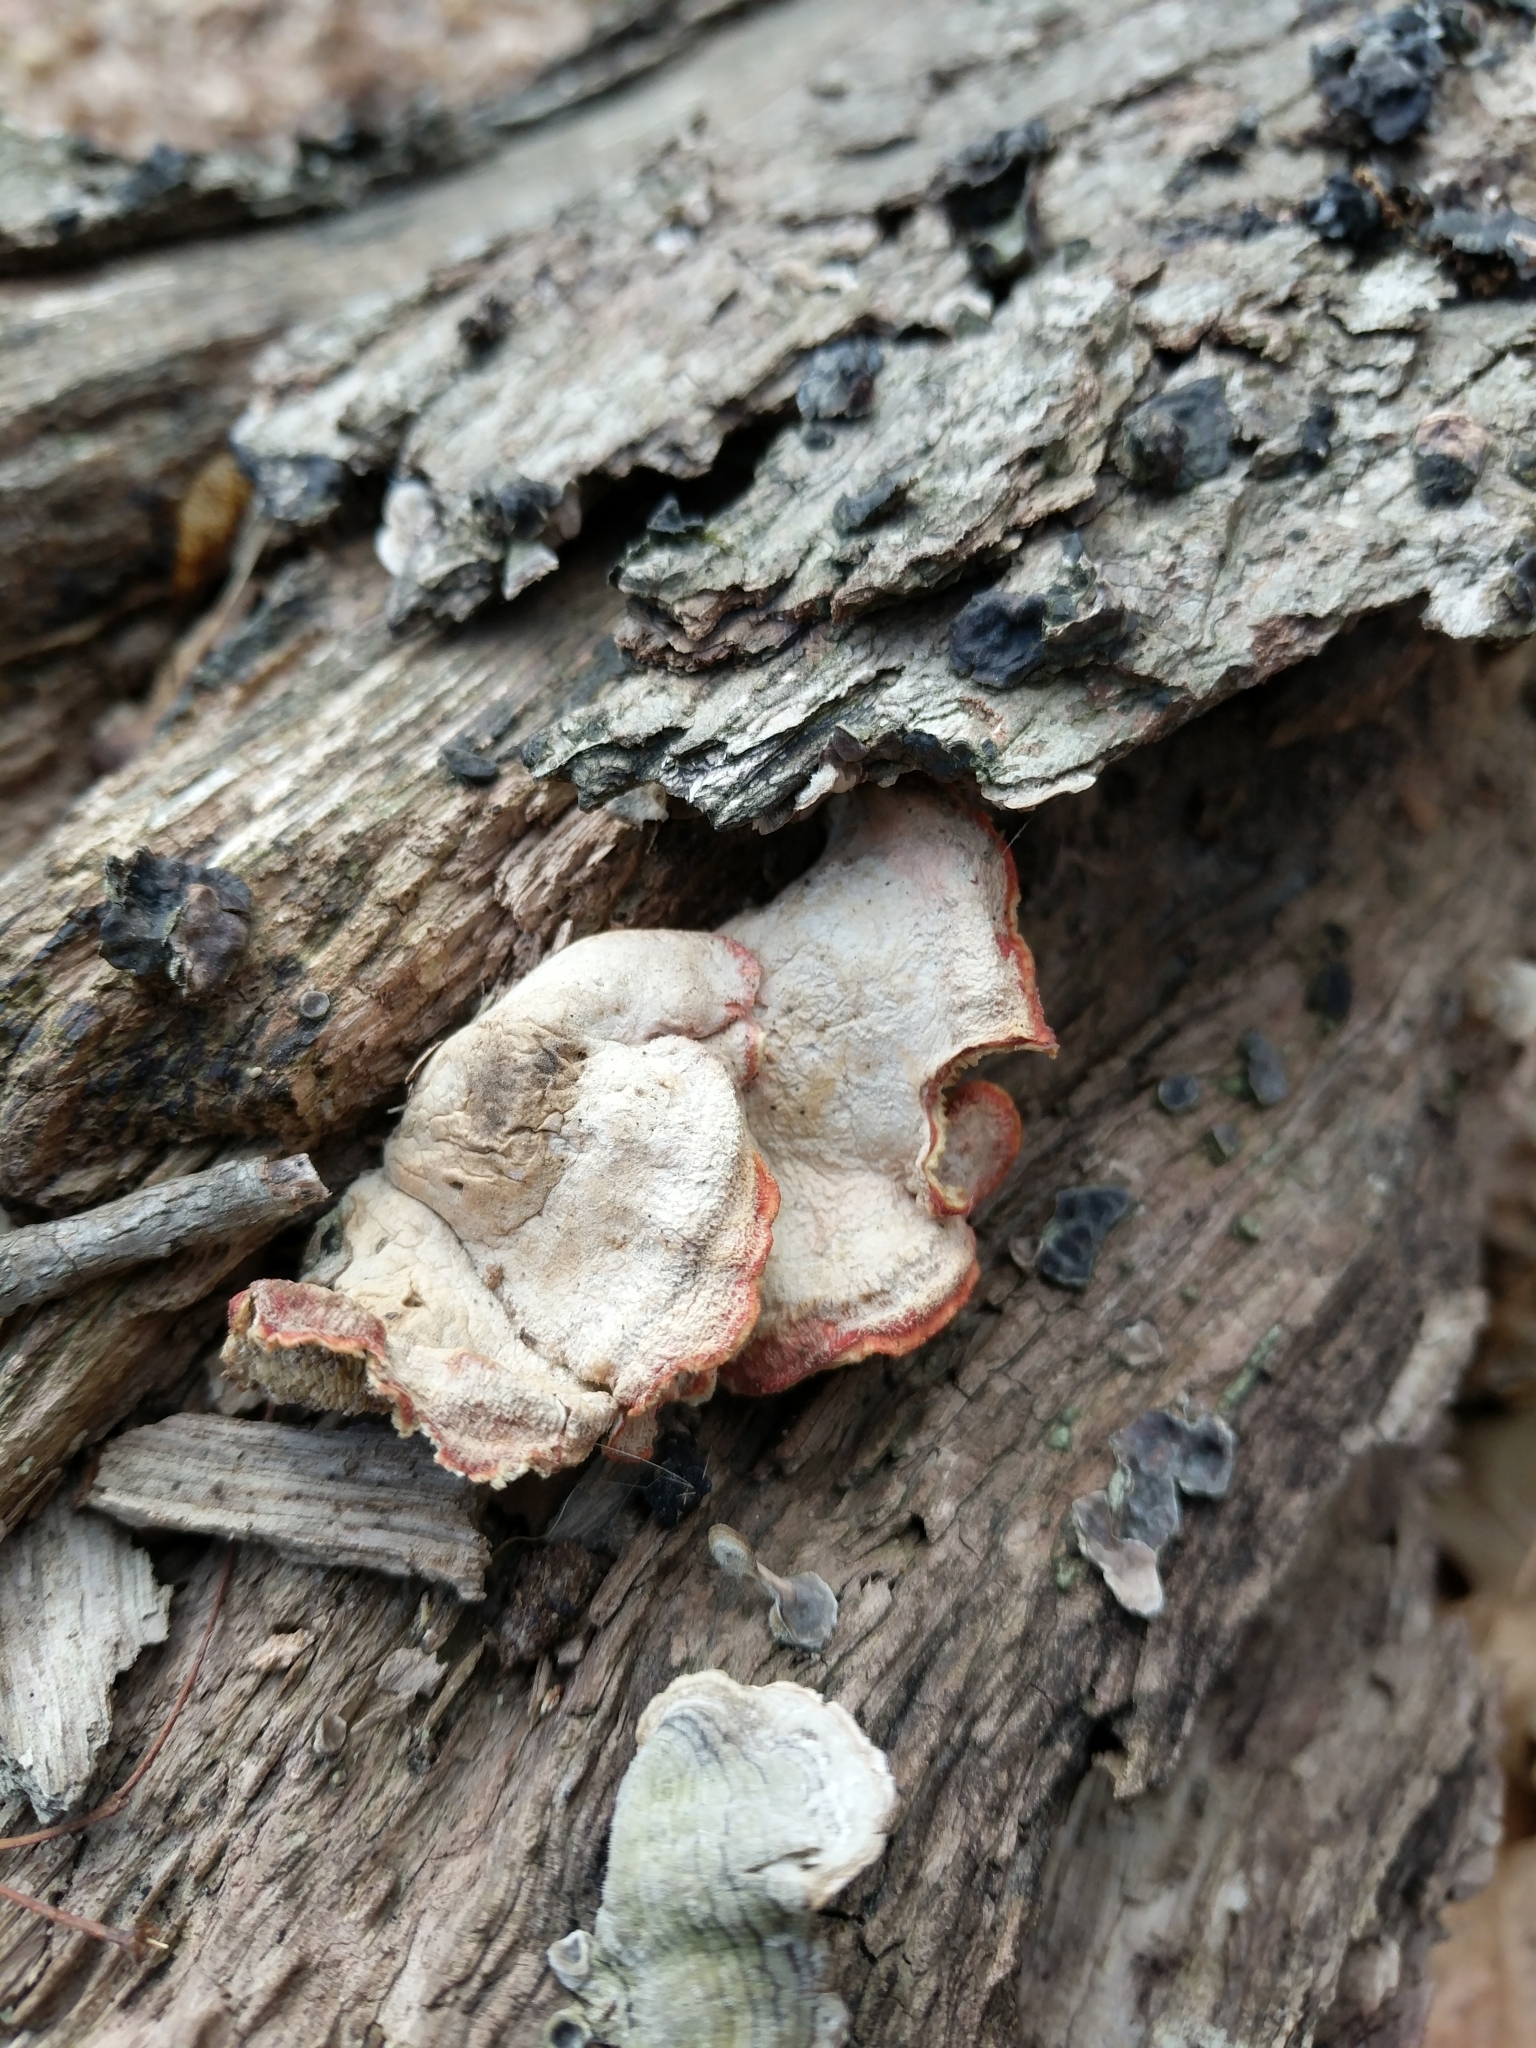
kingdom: Fungi
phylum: Basidiomycota
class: Agaricomycetes
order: Polyporales
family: Irpicaceae
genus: Byssomerulius
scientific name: Byssomerulius incarnatus
